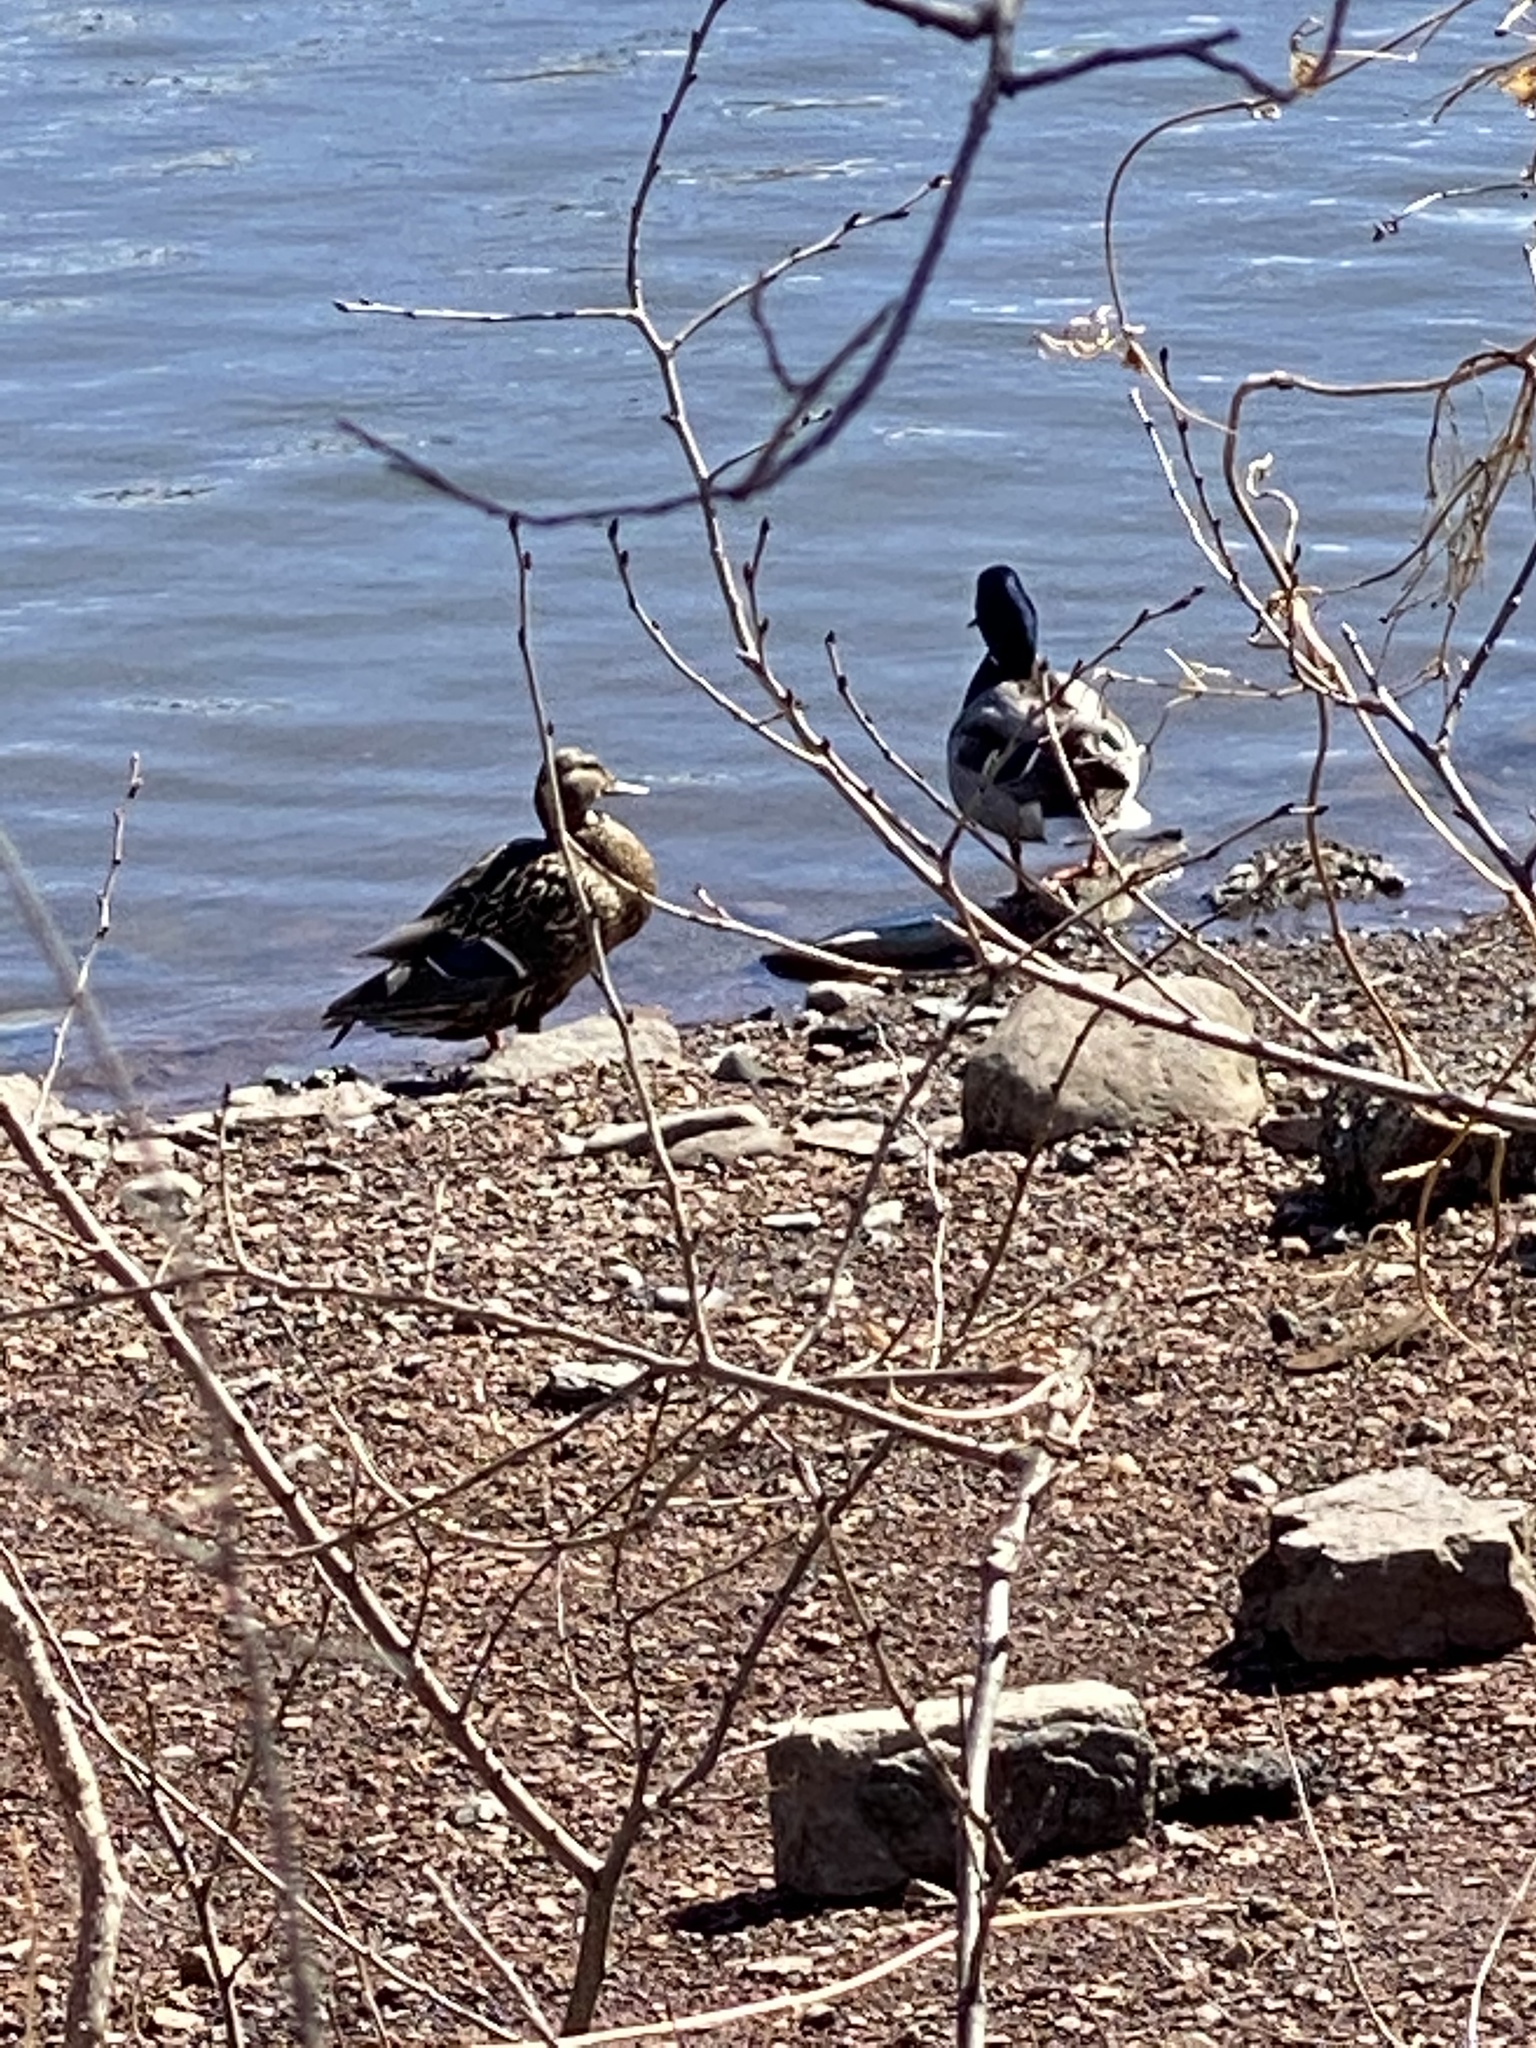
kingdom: Animalia
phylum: Chordata
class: Aves
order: Anseriformes
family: Anatidae
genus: Anas
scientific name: Anas platyrhynchos
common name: Mallard
